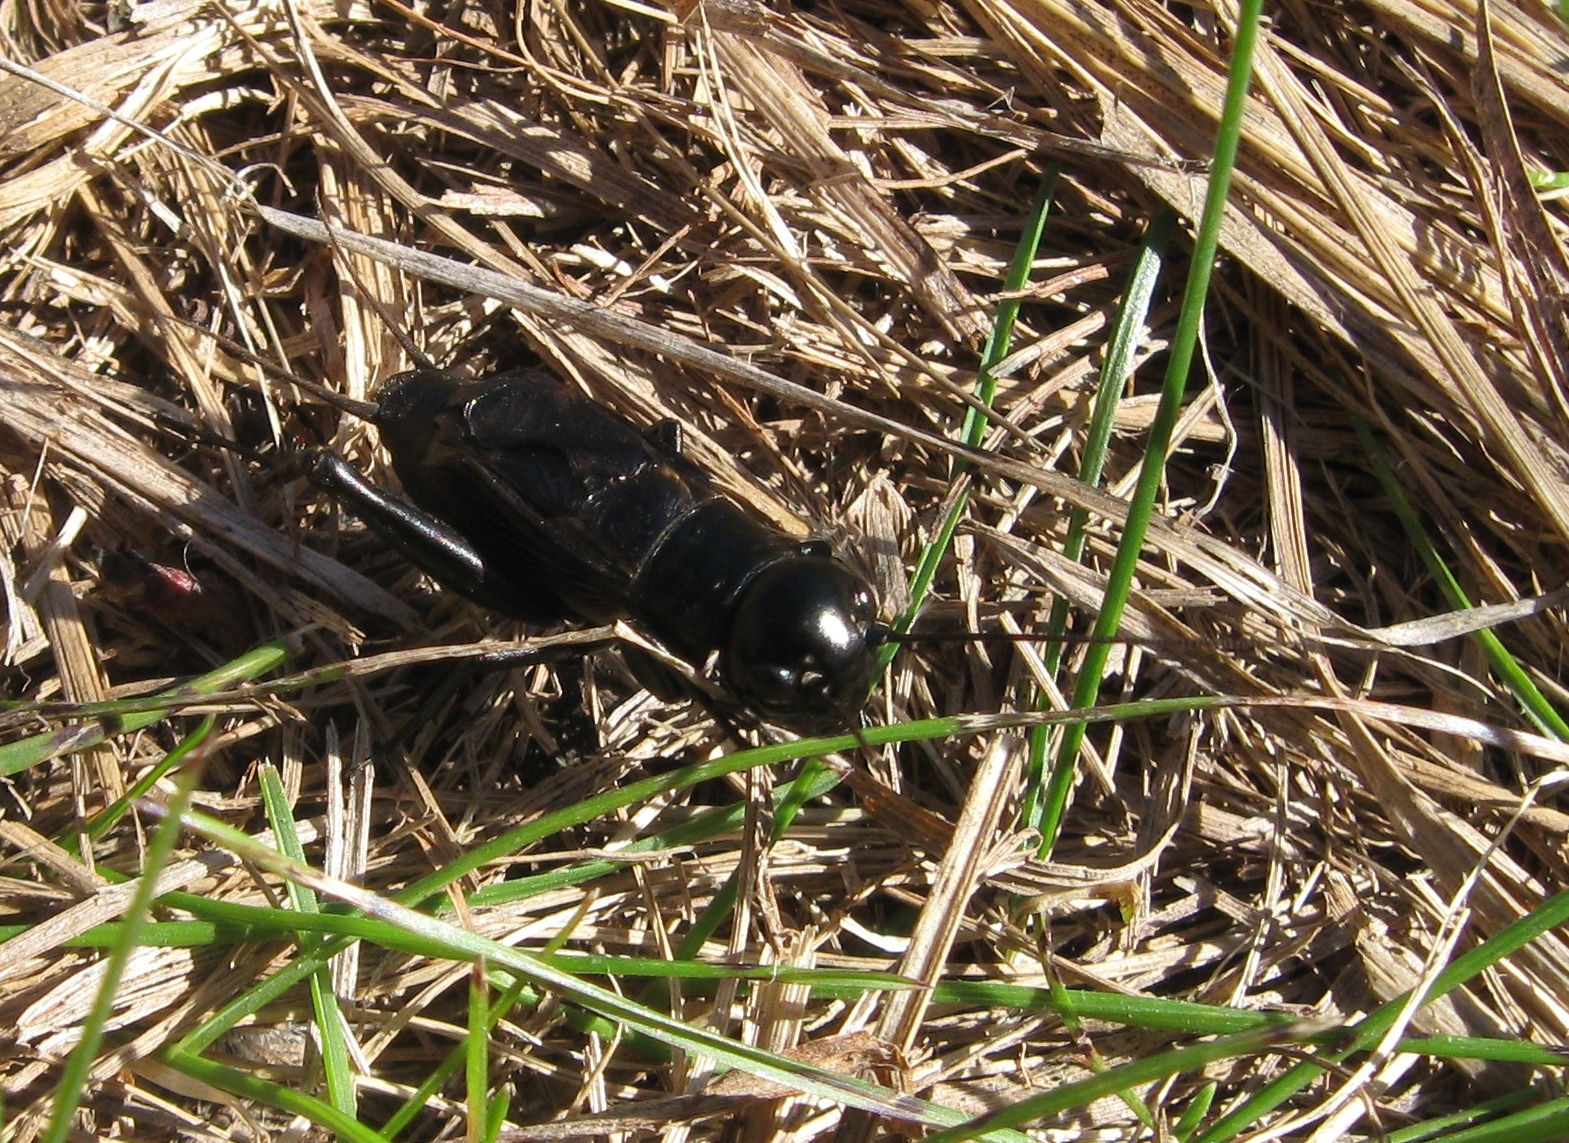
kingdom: Animalia
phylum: Arthropoda
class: Insecta
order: Orthoptera
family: Gryllidae
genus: Gryllus
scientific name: Gryllus pennsylvanicus
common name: Fall field cricket
